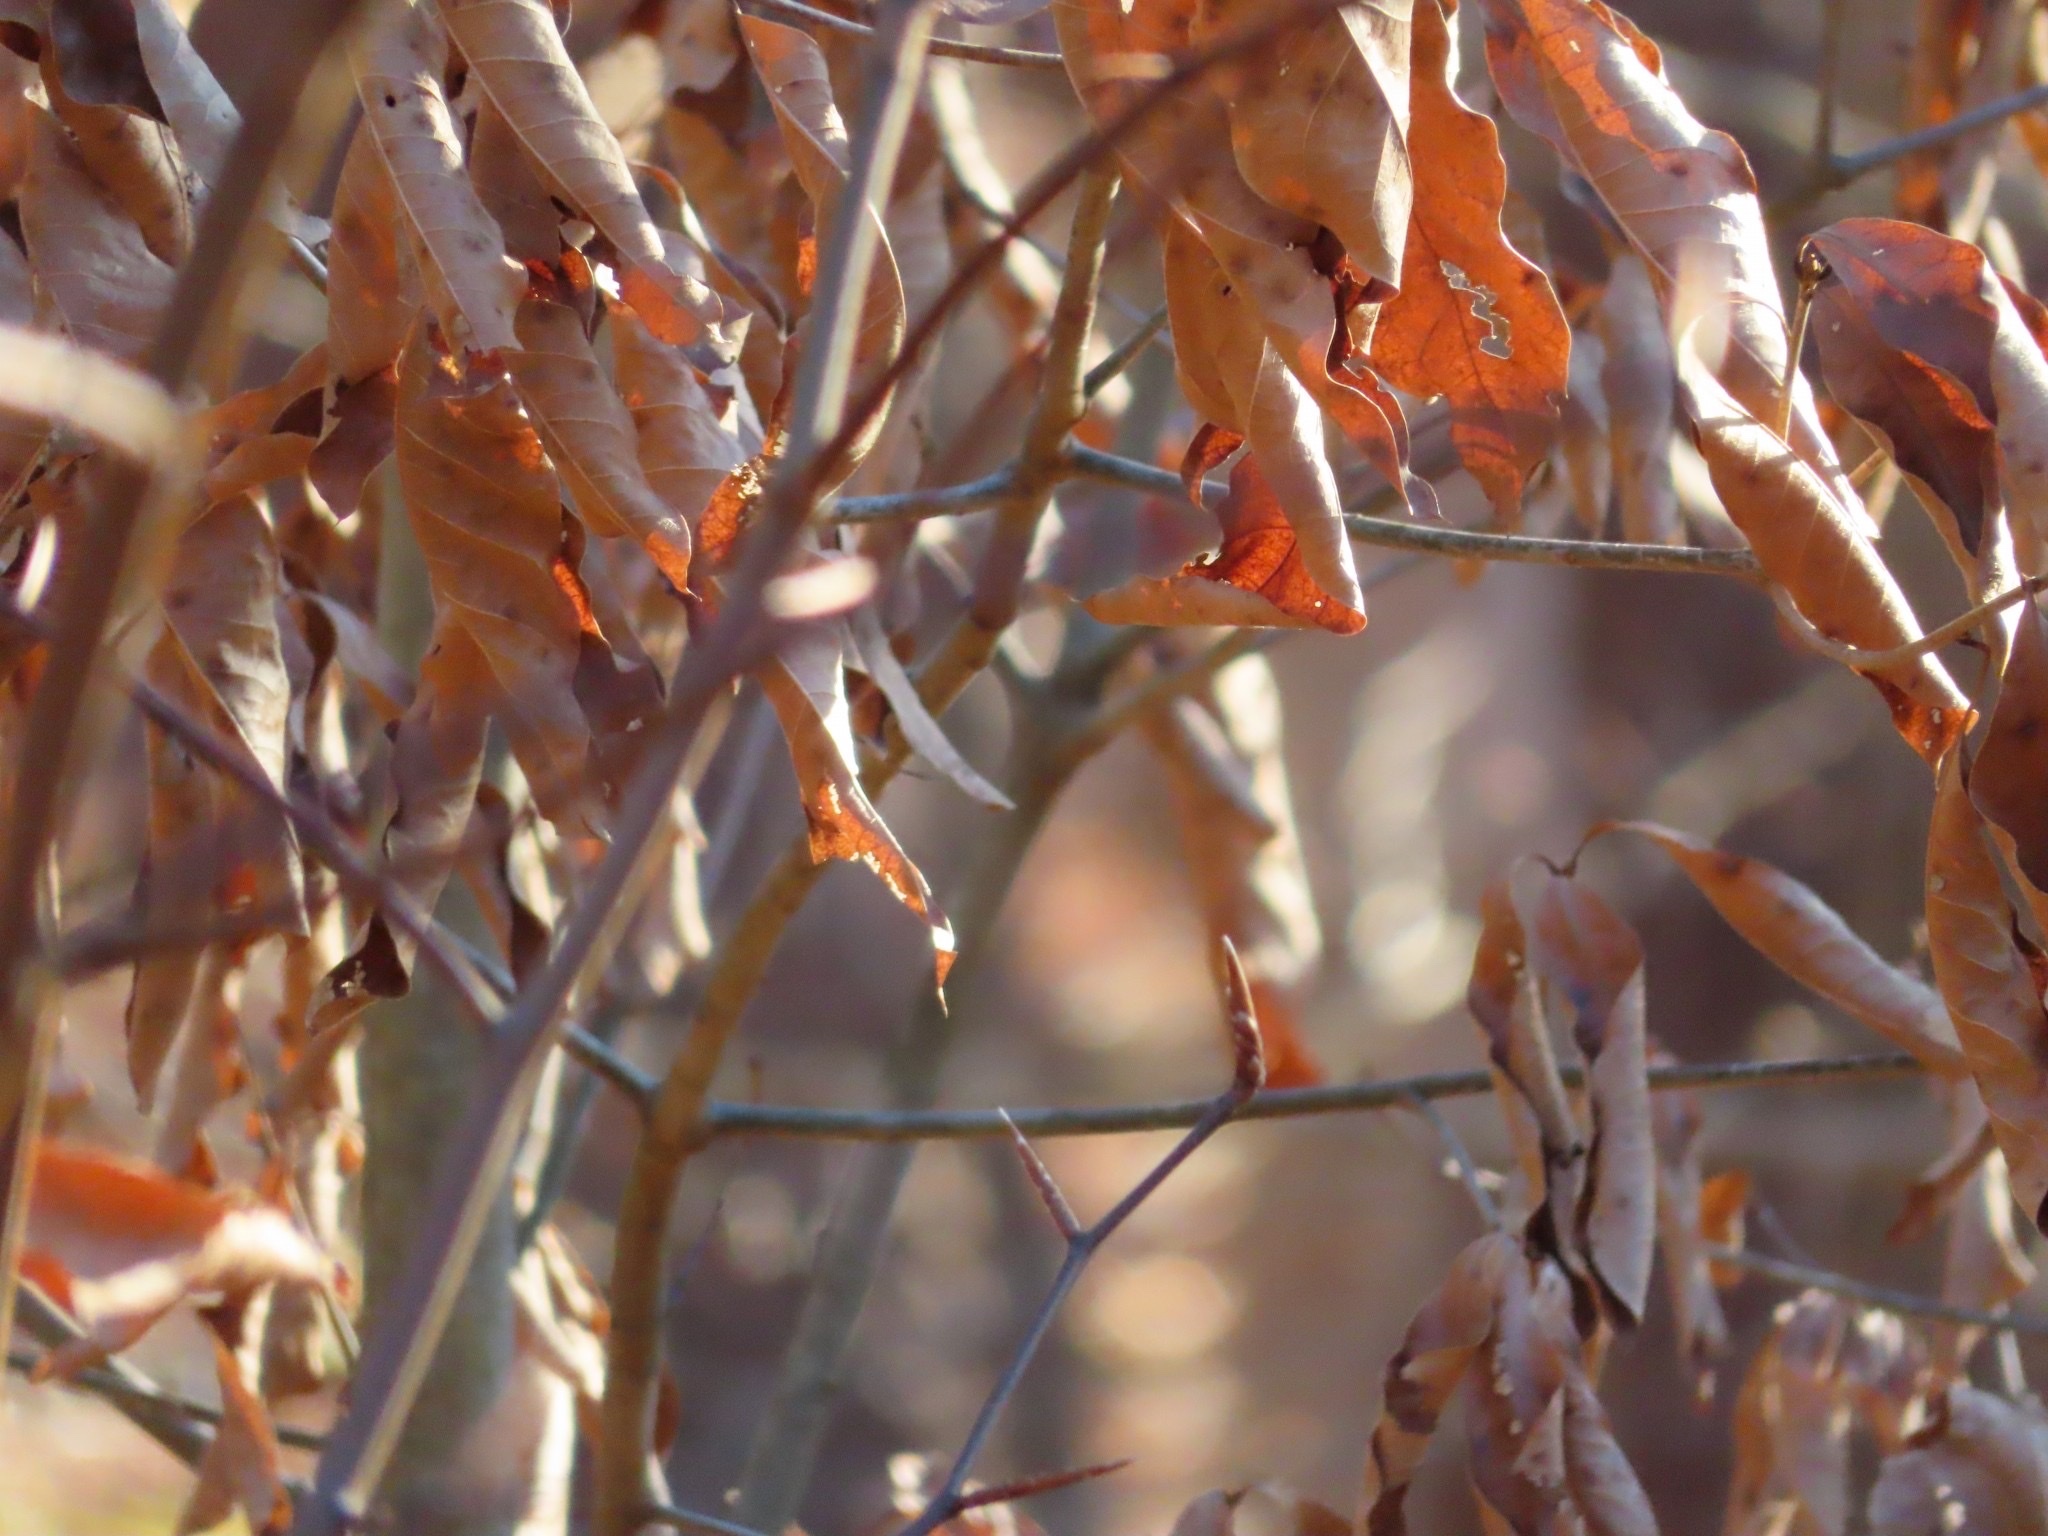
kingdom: Animalia
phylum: Chordata
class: Aves
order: Passeriformes
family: Regulidae
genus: Regulus
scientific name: Regulus satrapa
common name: Golden-crowned kinglet
